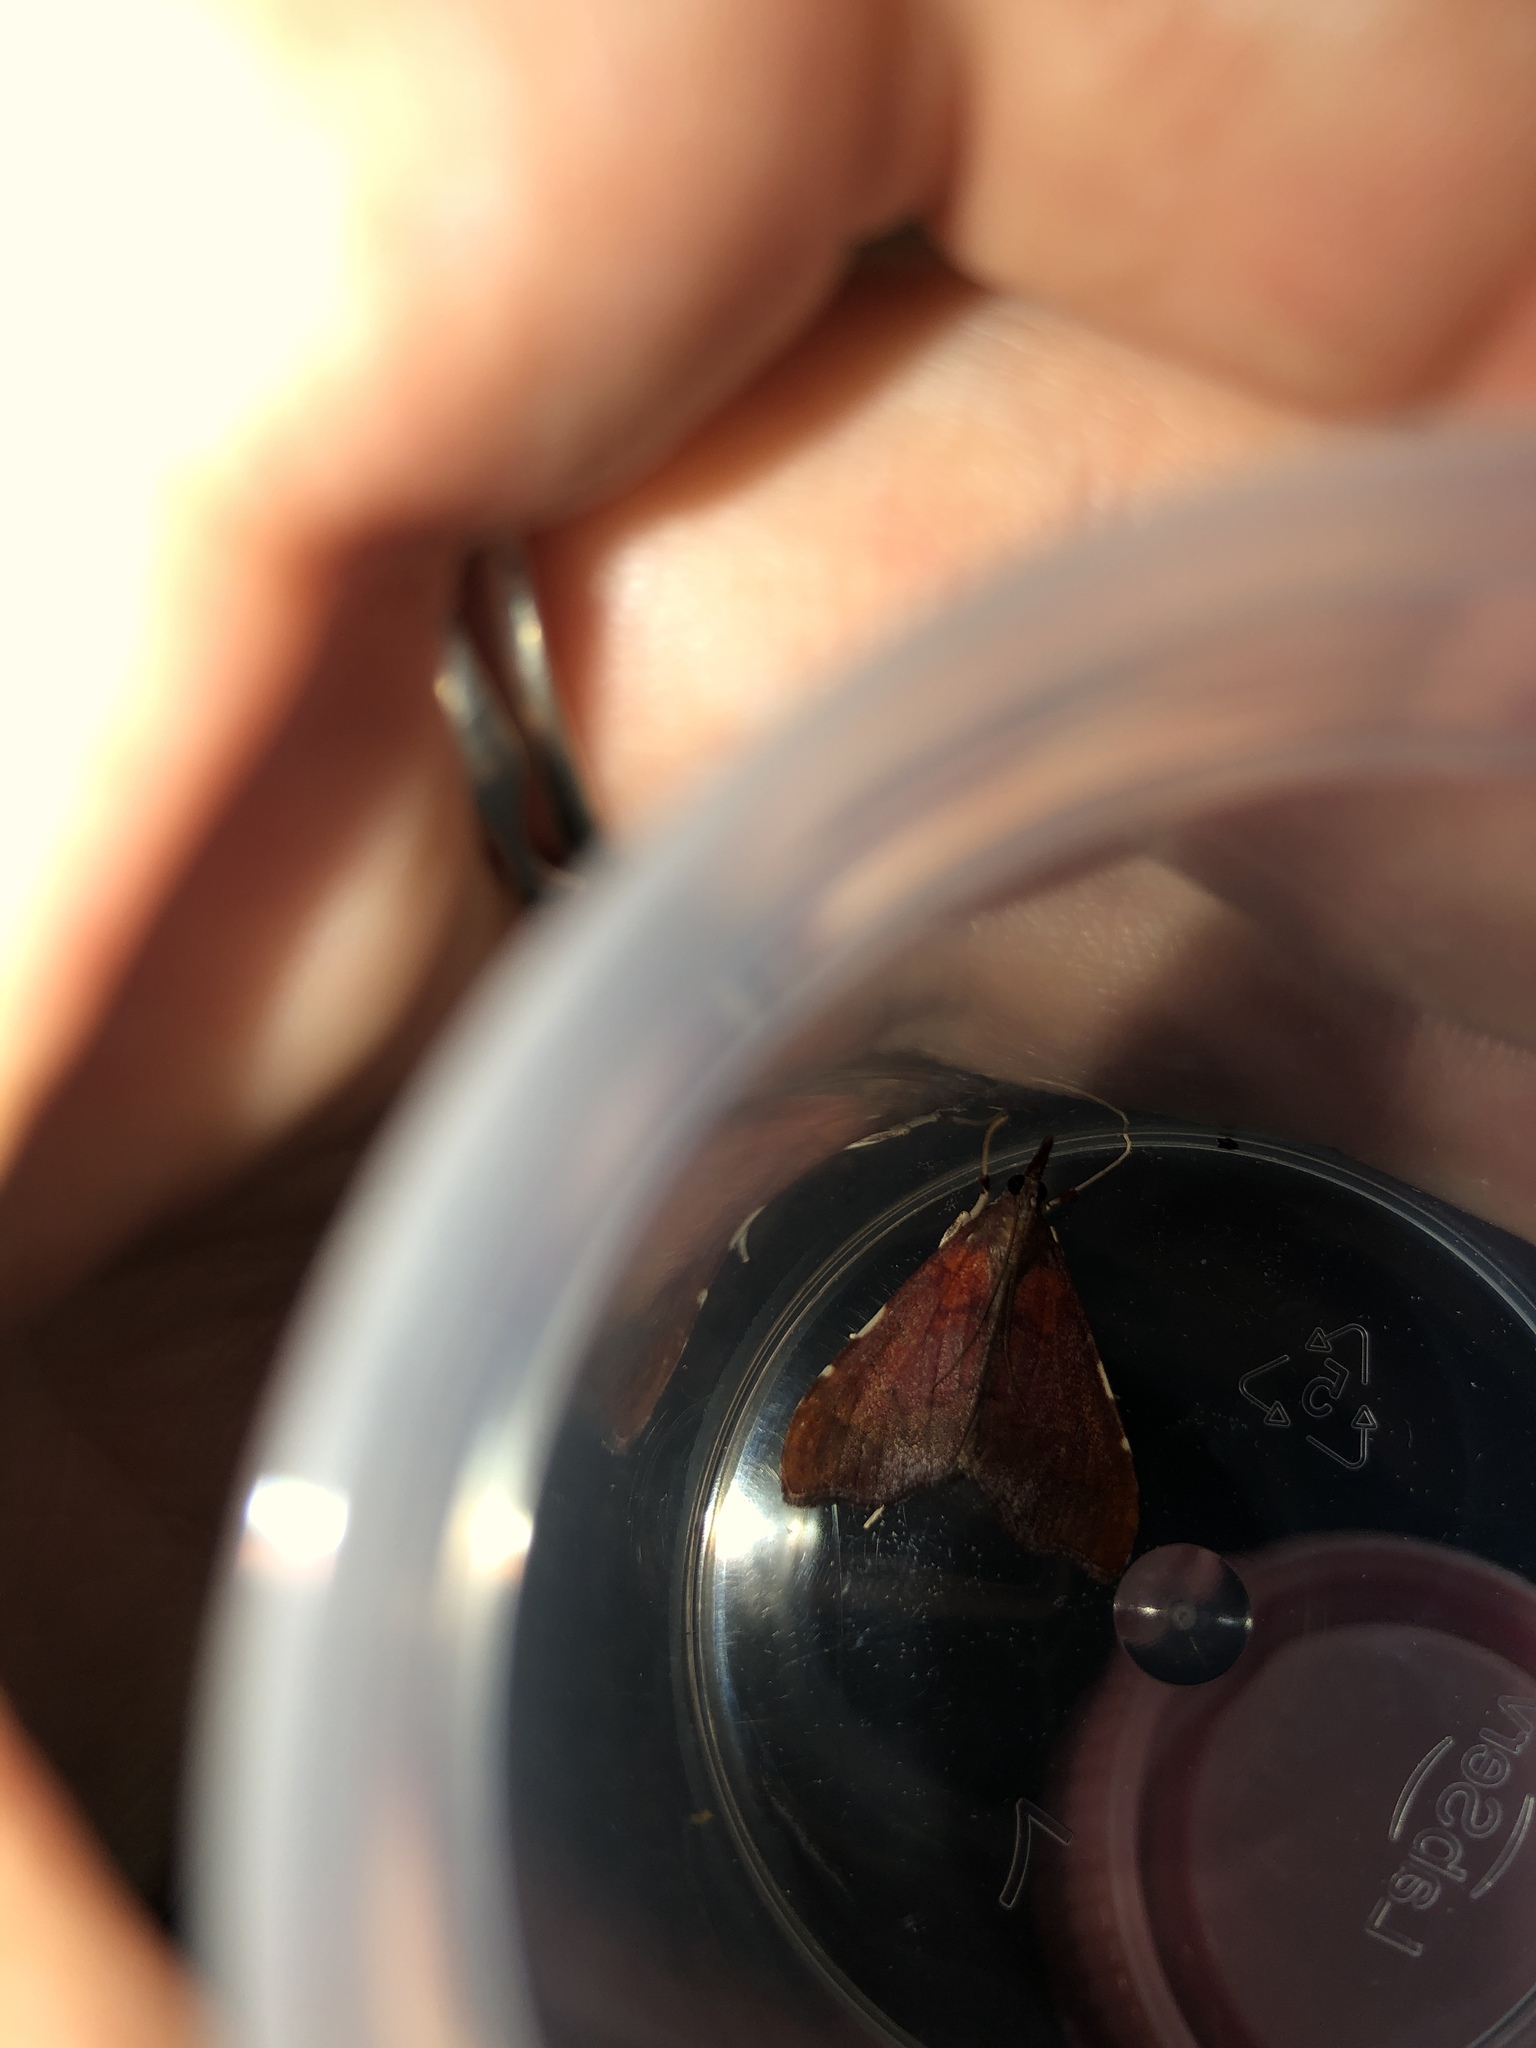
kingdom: Animalia
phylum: Arthropoda
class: Insecta
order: Lepidoptera
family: Crambidae
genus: Deana
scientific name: Deana hybreasalis
